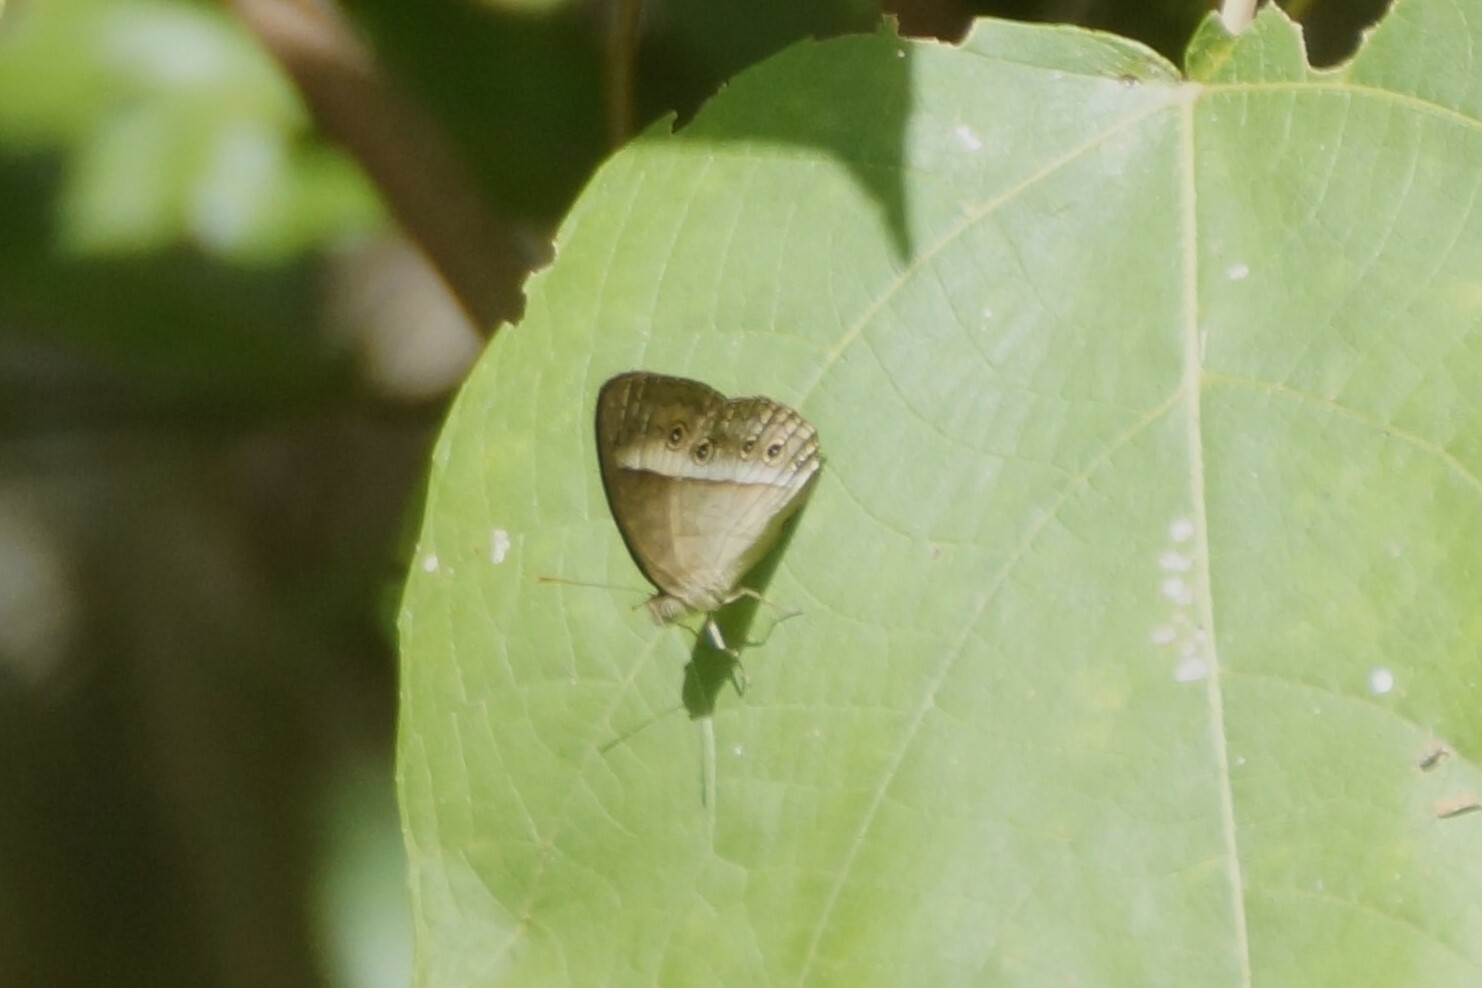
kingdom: Animalia
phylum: Arthropoda
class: Insecta
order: Lepidoptera
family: Nymphalidae
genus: Mycalesis
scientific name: Mycalesis terminus
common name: Orange bushbrown
